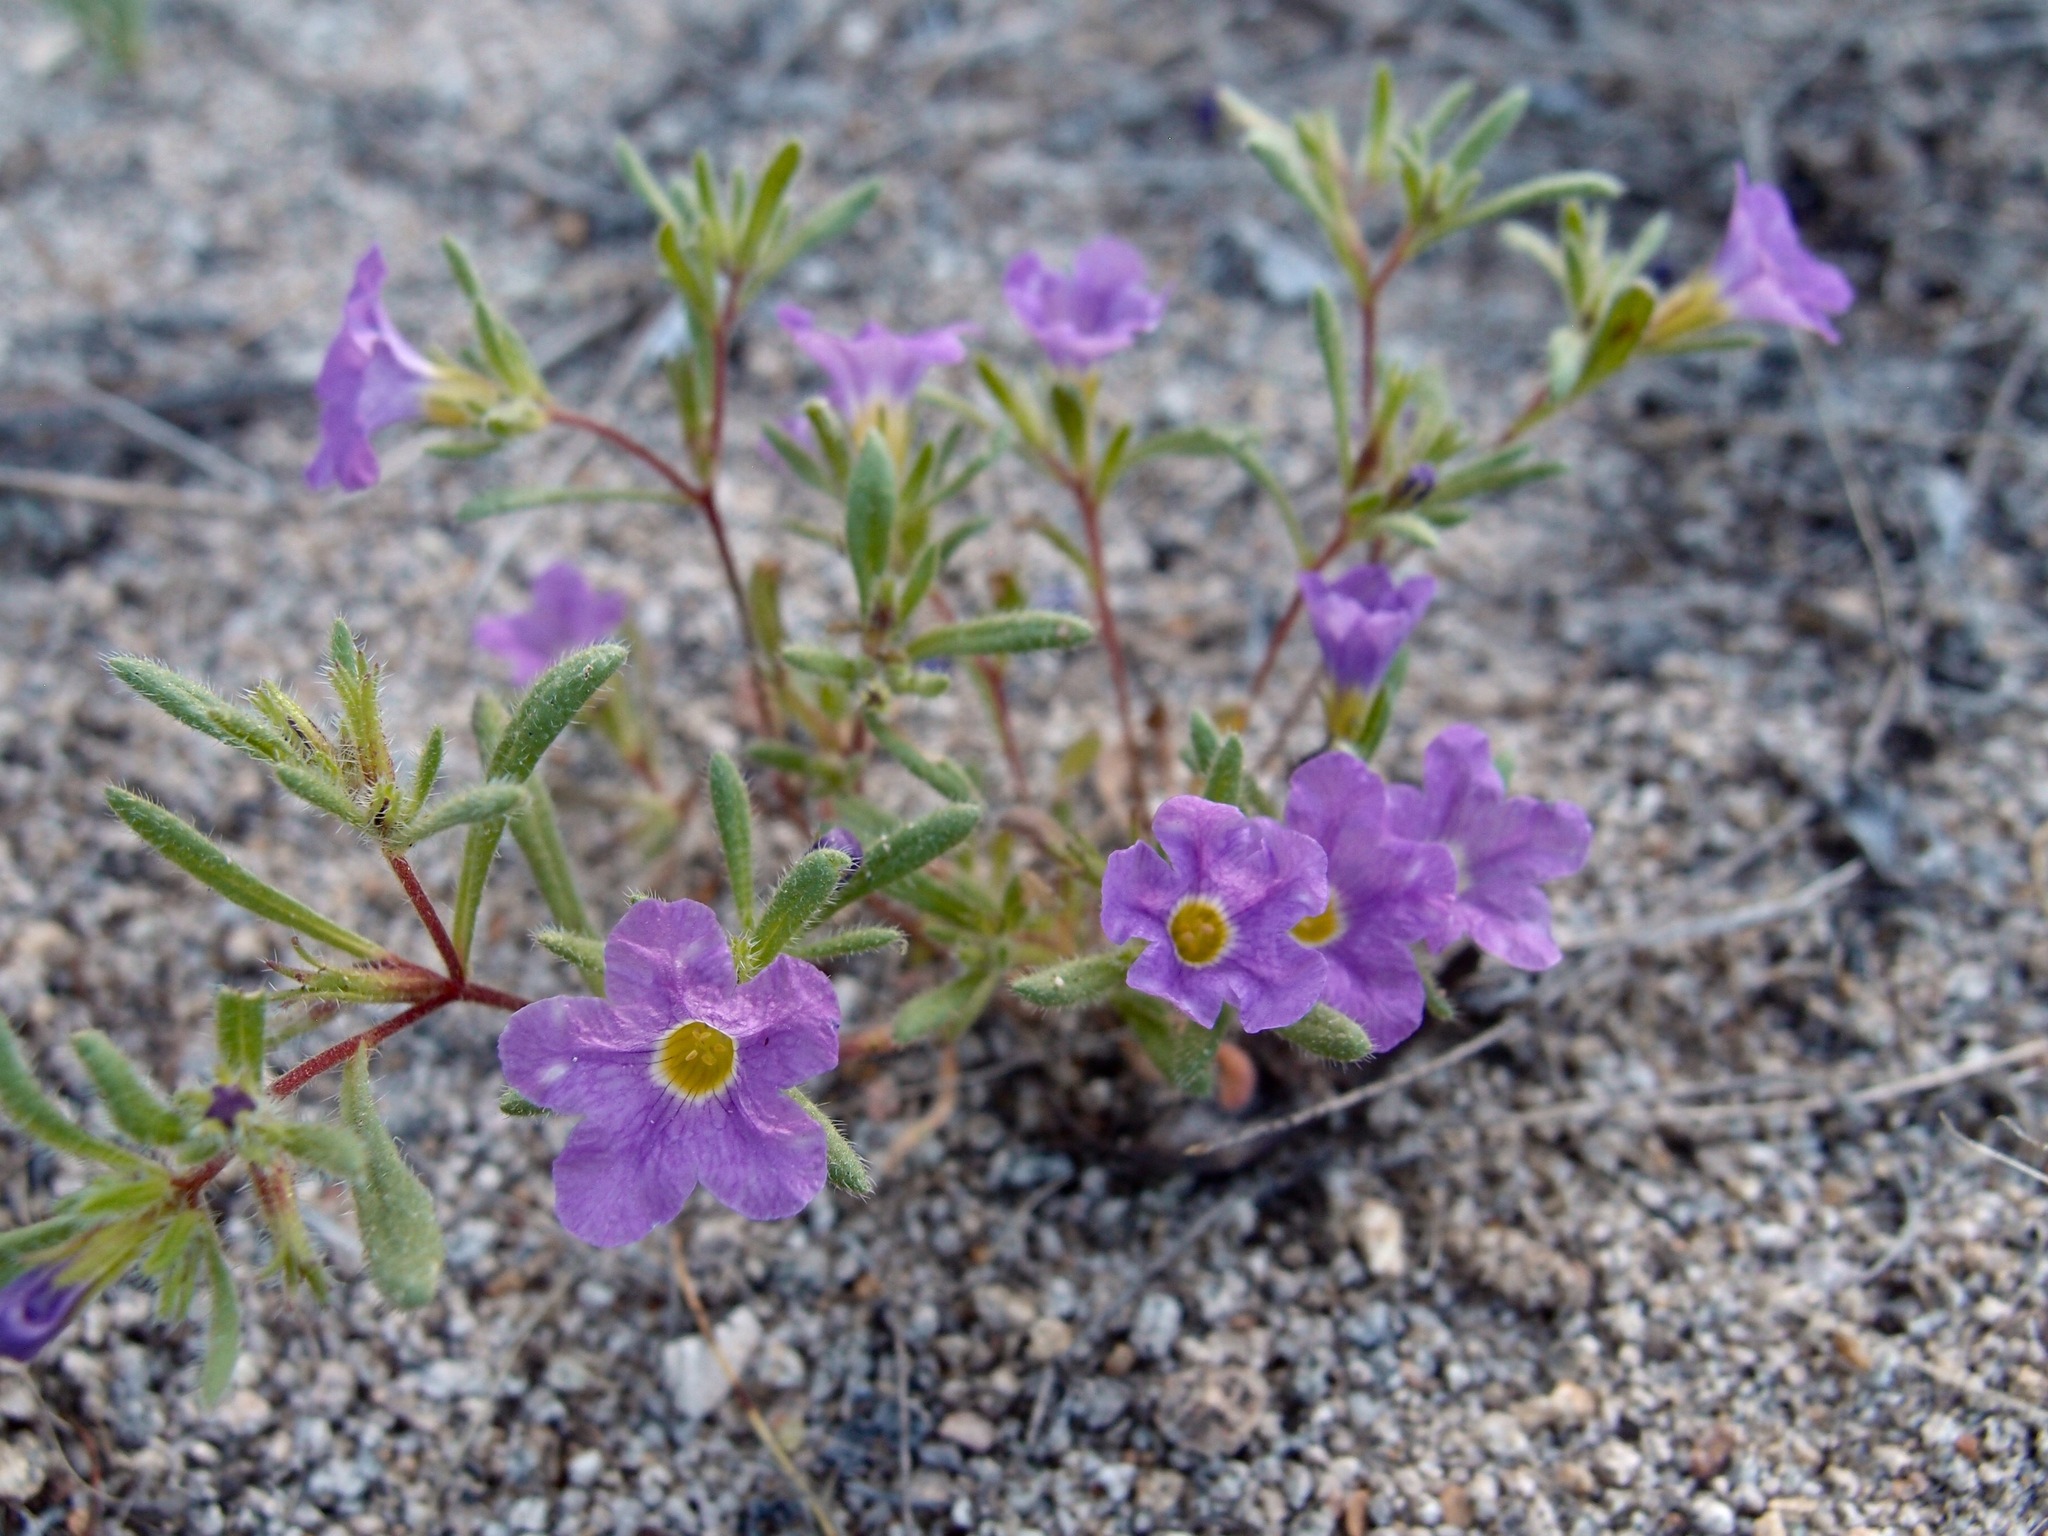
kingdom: Plantae
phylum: Tracheophyta
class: Magnoliopsida
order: Boraginales
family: Namaceae
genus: Nama
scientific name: Nama hispida
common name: Bristly nama
